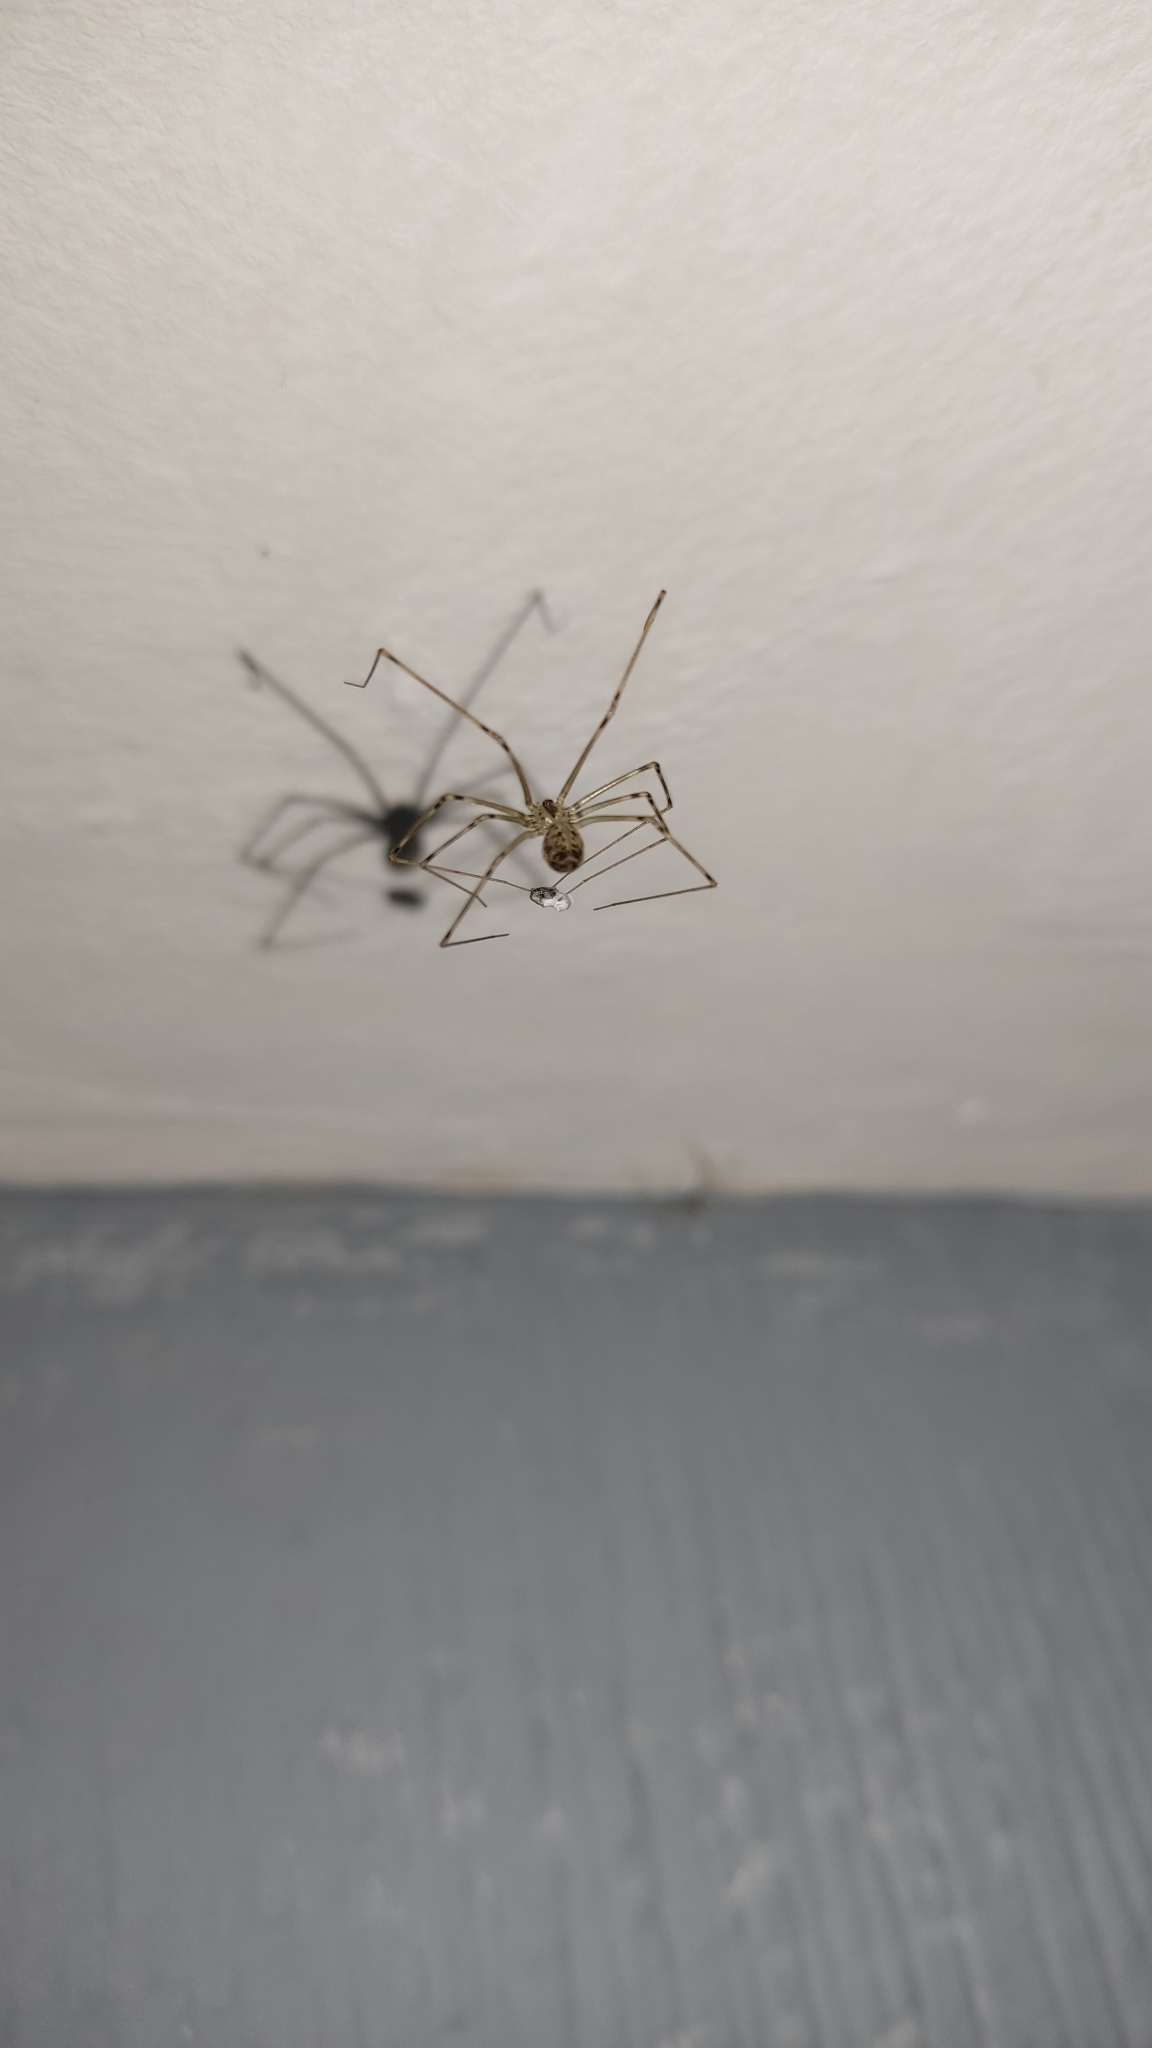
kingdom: Animalia
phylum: Arthropoda
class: Arachnida
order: Araneae
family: Pholcidae
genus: Physocyclus
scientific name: Physocyclus globosus
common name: Cellar spiders
